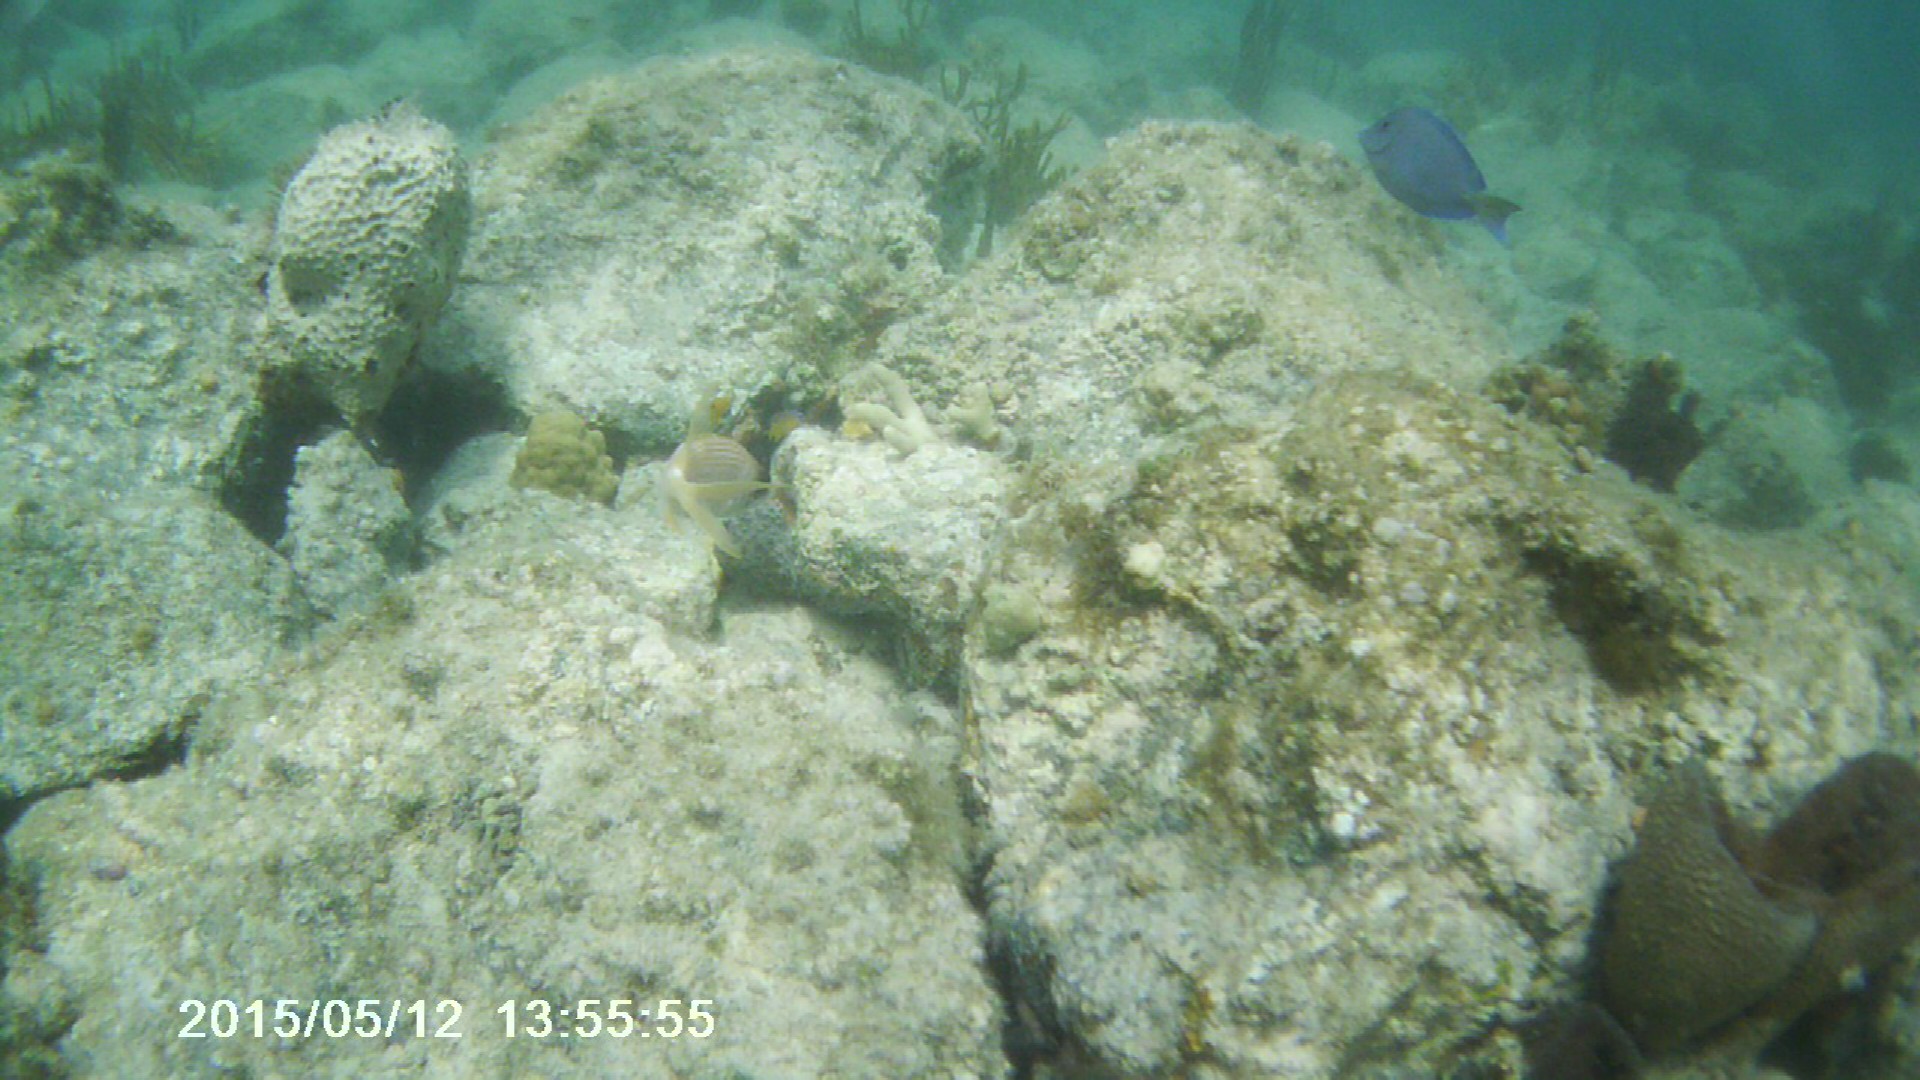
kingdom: Animalia
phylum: Chordata
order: Perciformes
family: Acanthuridae
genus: Acanthurus
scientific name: Acanthurus coeruleus
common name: Blue tang
